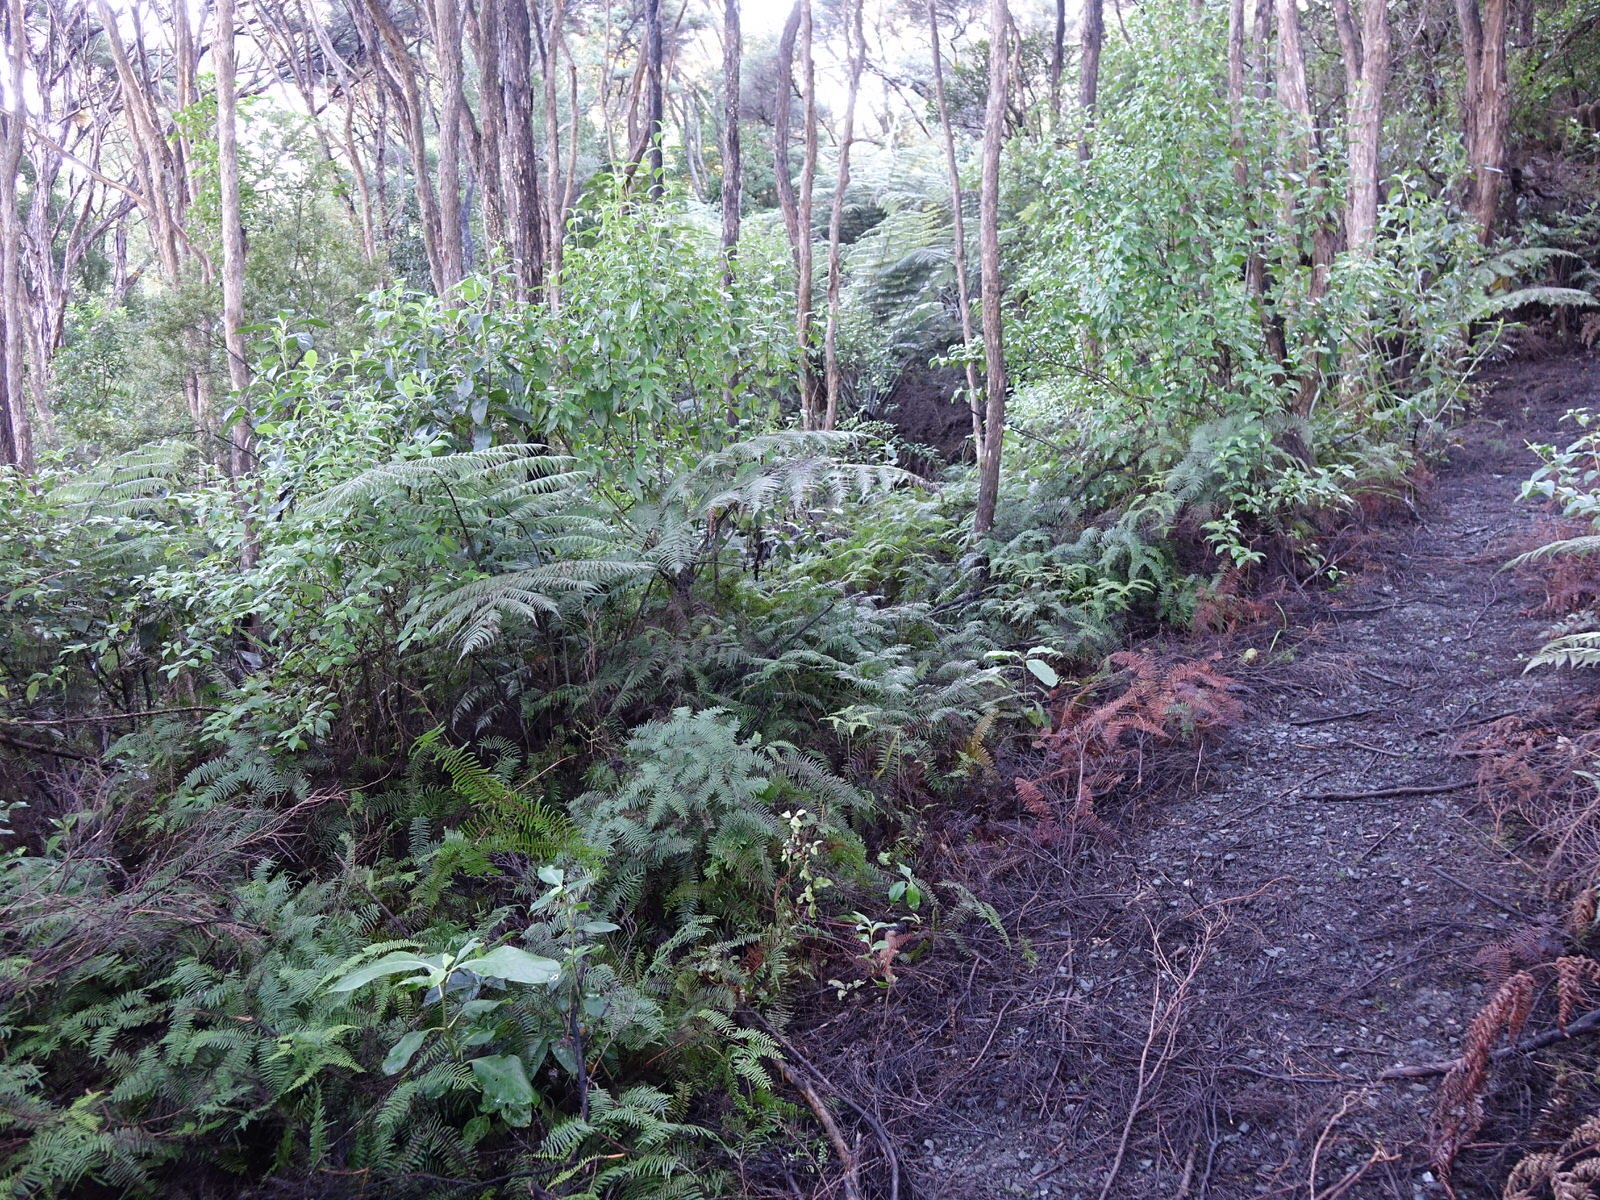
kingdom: Plantae
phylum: Tracheophyta
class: Polypodiopsida
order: Gleicheniales
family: Gleicheniaceae
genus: Gleichenia
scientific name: Gleichenia microphylla
